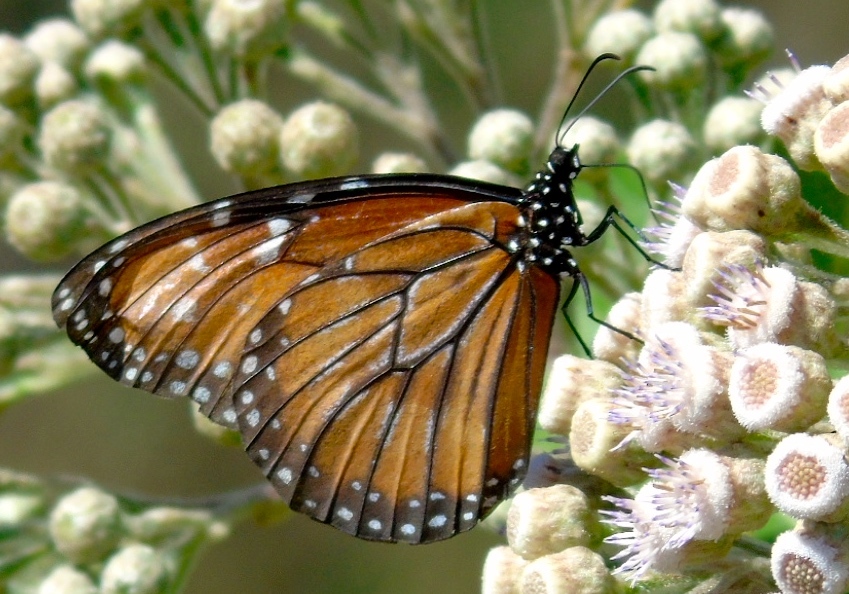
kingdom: Animalia
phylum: Arthropoda
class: Insecta
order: Lepidoptera
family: Nymphalidae
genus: Danaus
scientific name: Danaus eresimus
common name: Soldier
